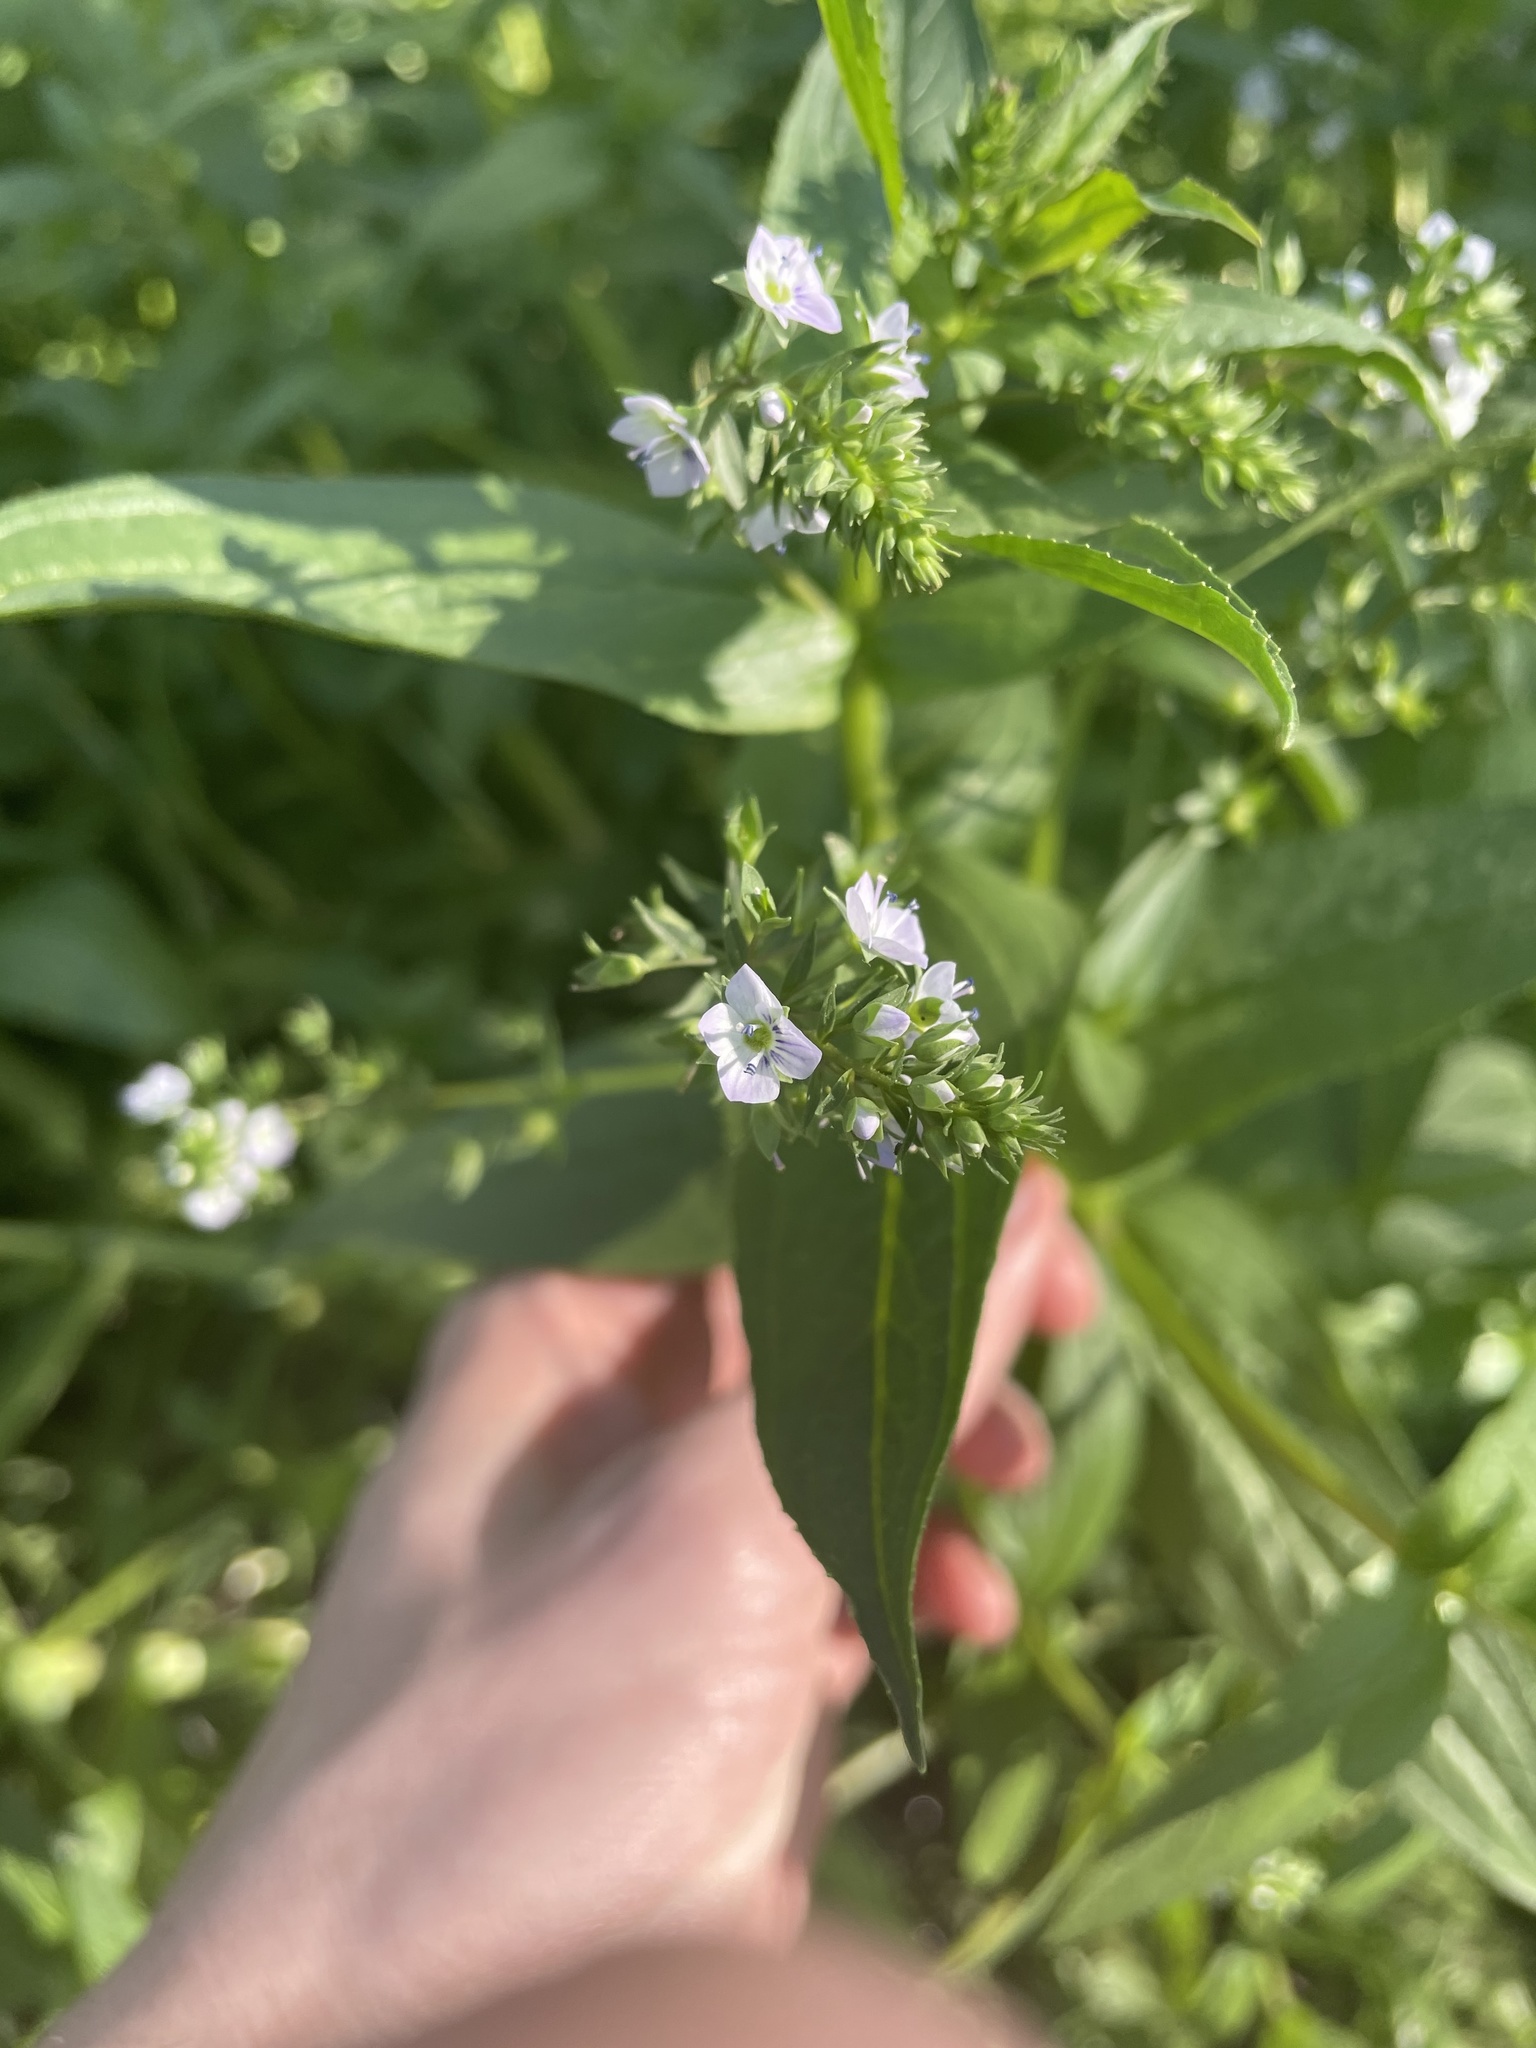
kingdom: Plantae
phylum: Tracheophyta
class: Magnoliopsida
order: Lamiales
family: Plantaginaceae
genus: Veronica
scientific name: Veronica anagallis-aquatica
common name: Water speedwell
